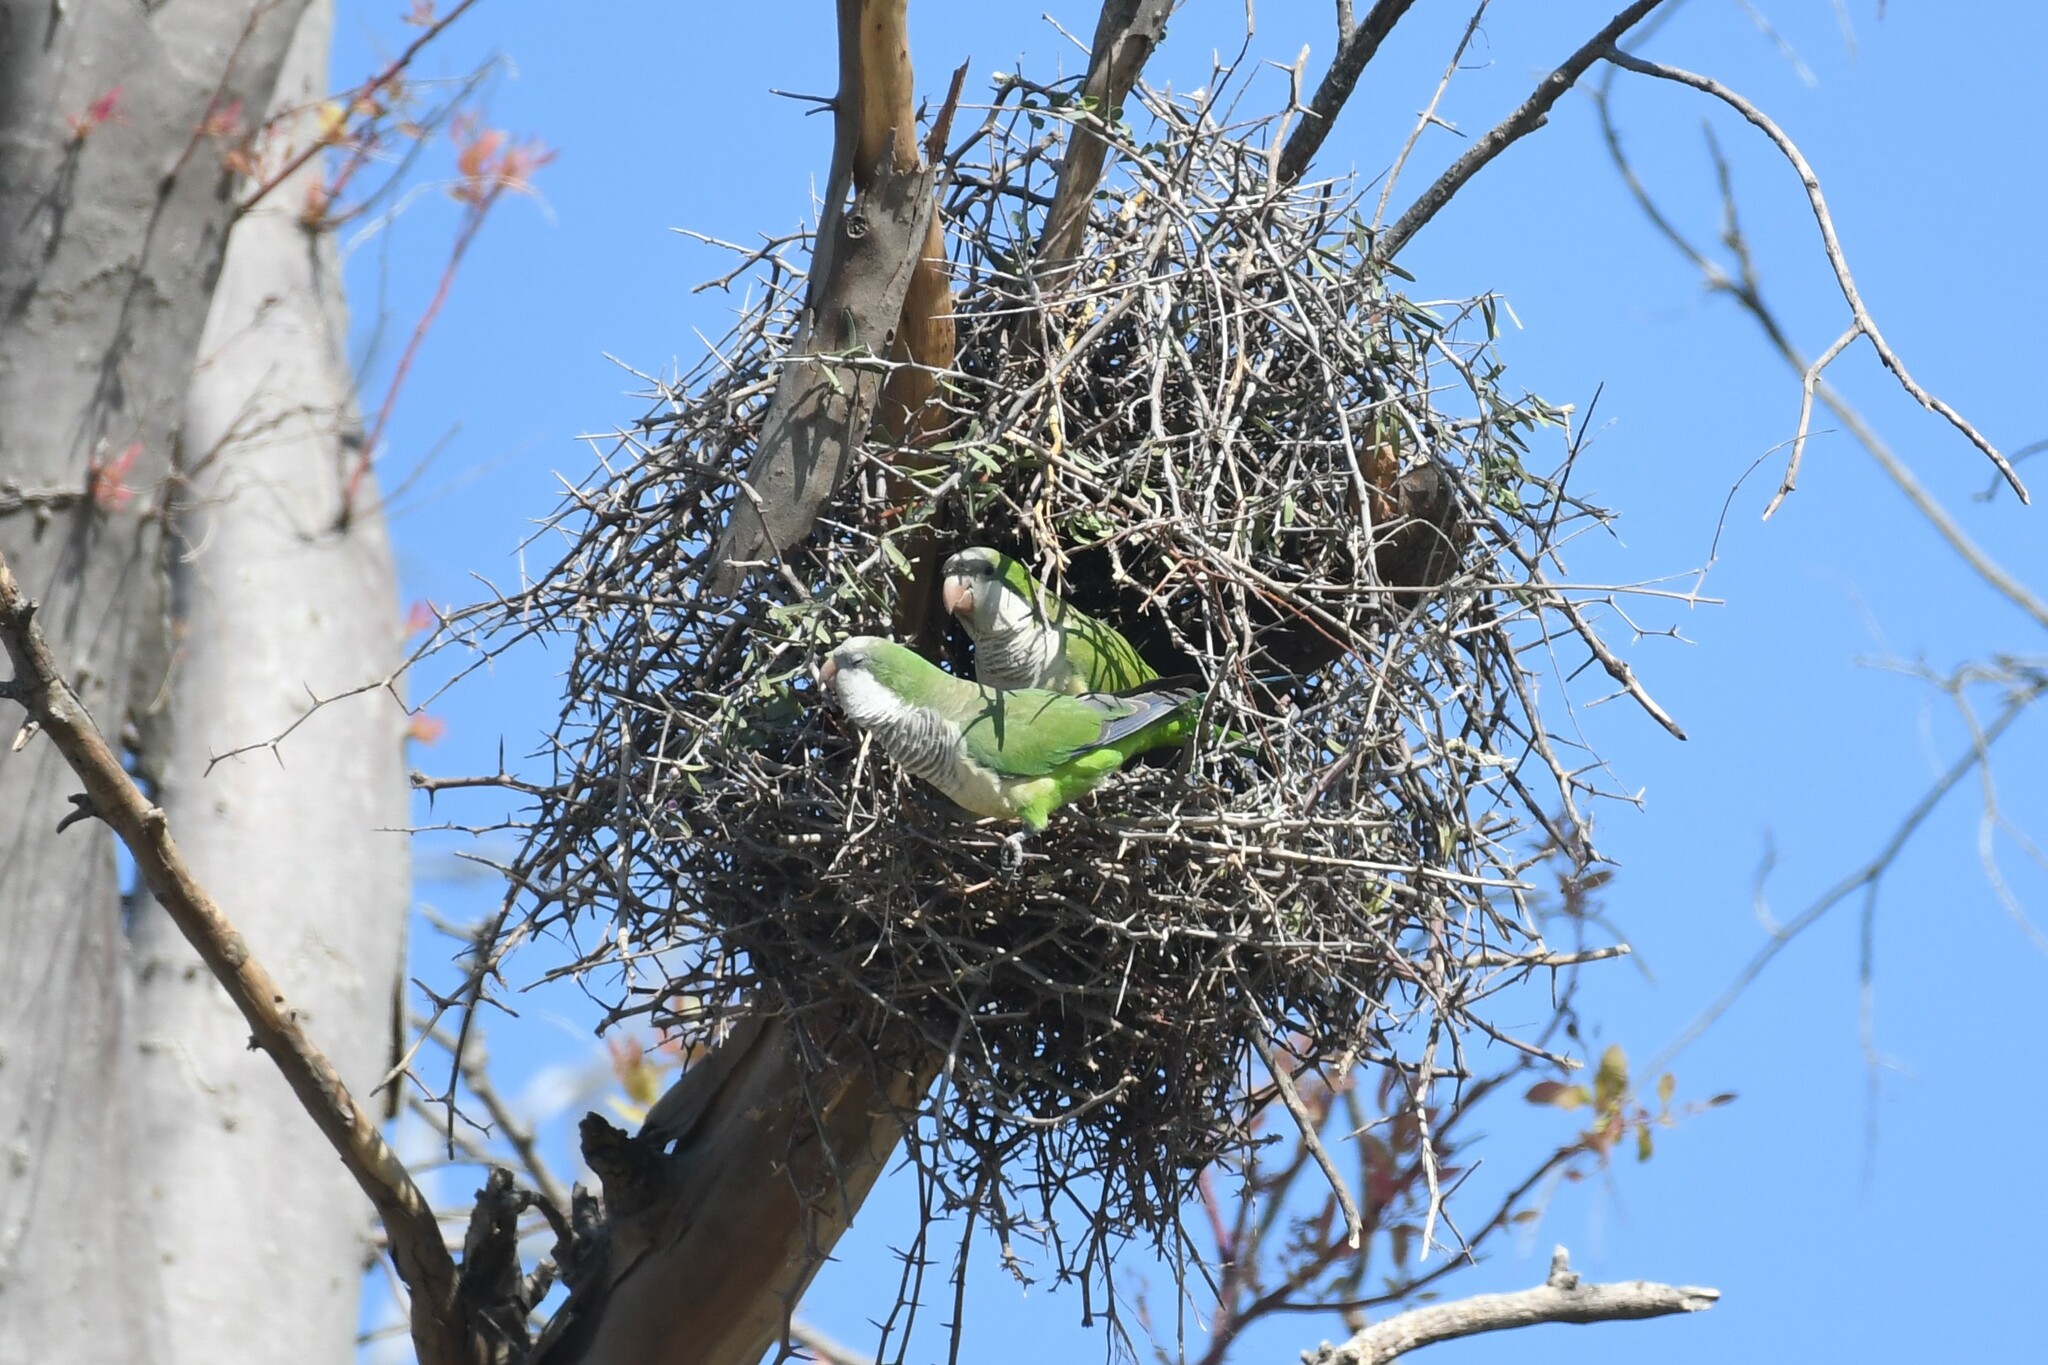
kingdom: Animalia
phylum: Chordata
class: Aves
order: Psittaciformes
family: Psittacidae
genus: Myiopsitta
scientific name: Myiopsitta monachus
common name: Monk parakeet
